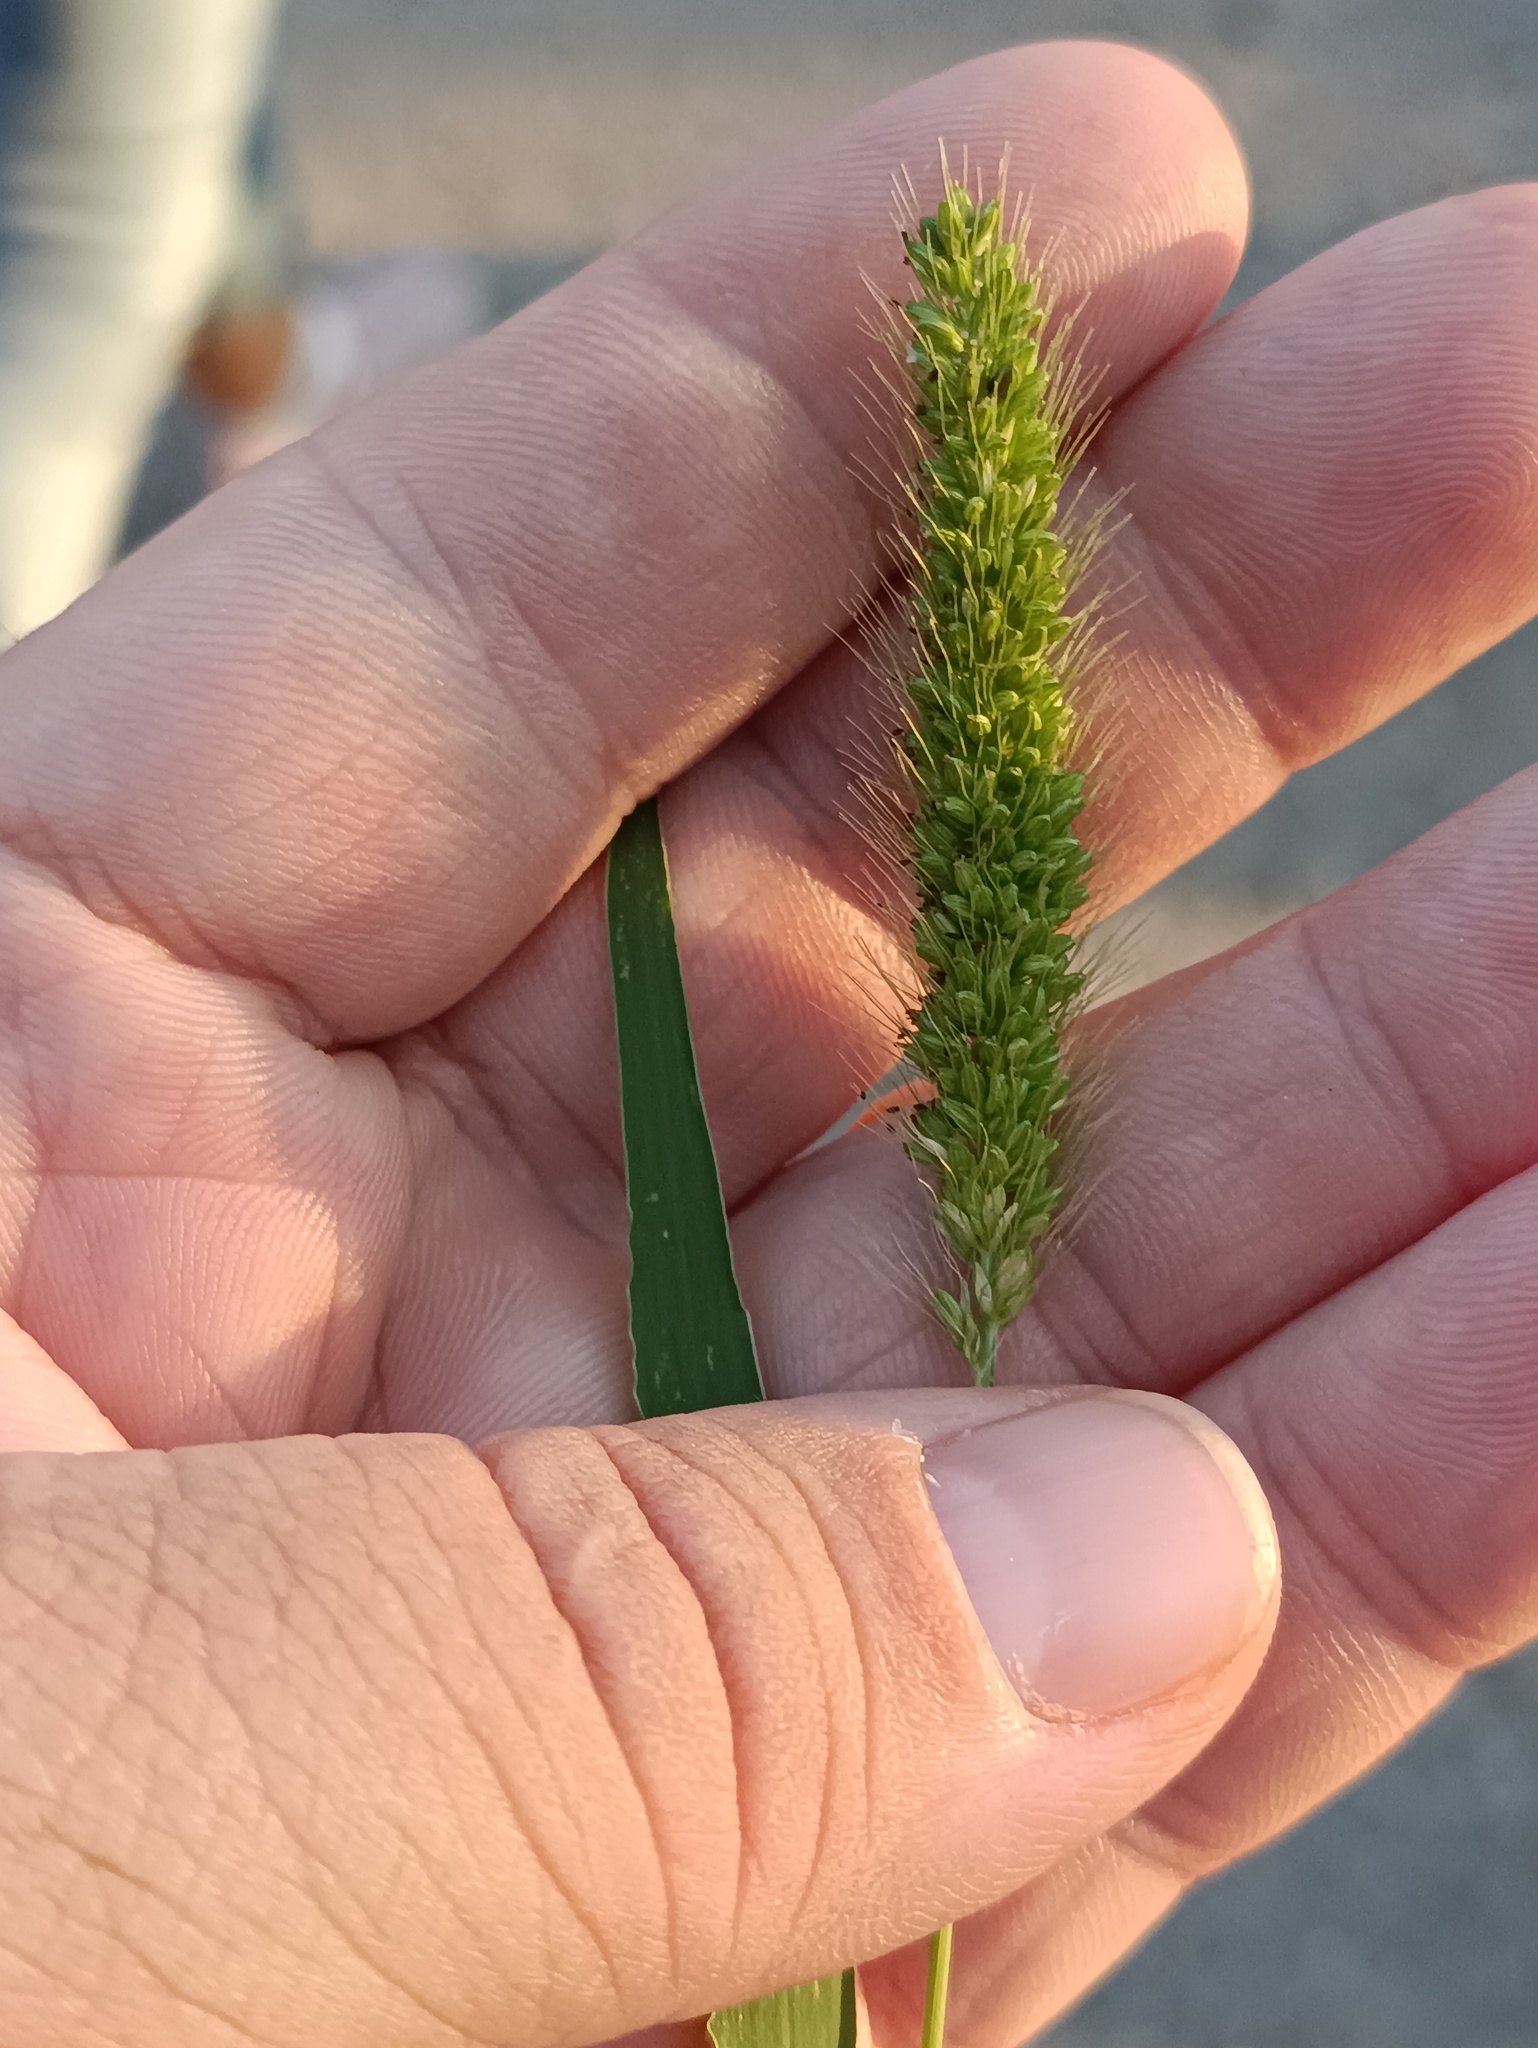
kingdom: Plantae
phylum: Tracheophyta
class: Liliopsida
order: Poales
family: Poaceae
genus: Setaria
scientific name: Setaria viridis
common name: Green bristlegrass
